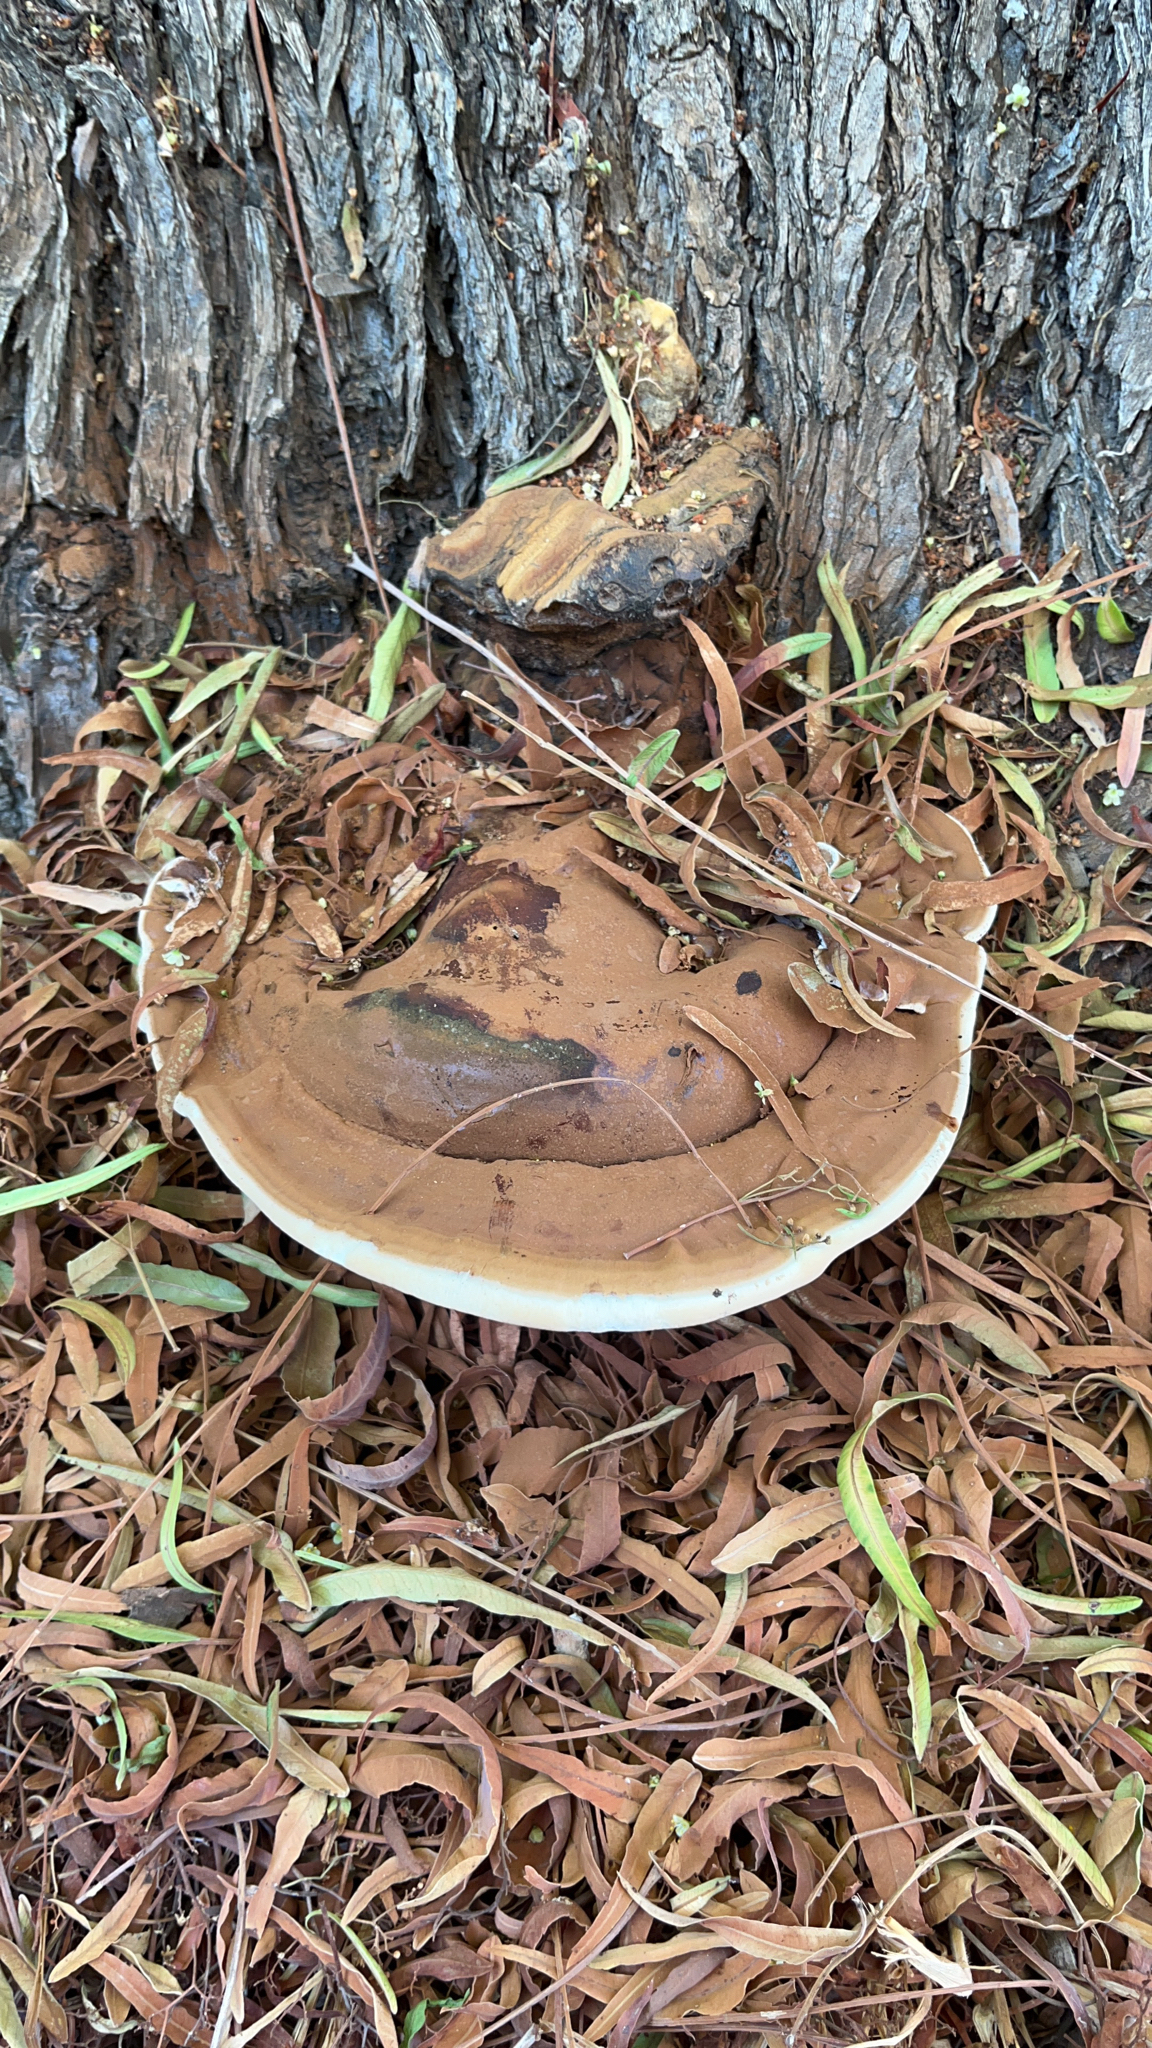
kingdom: Fungi
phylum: Basidiomycota
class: Agaricomycetes
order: Polyporales
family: Polyporaceae
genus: Ganoderma
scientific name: Ganoderma polychromum
